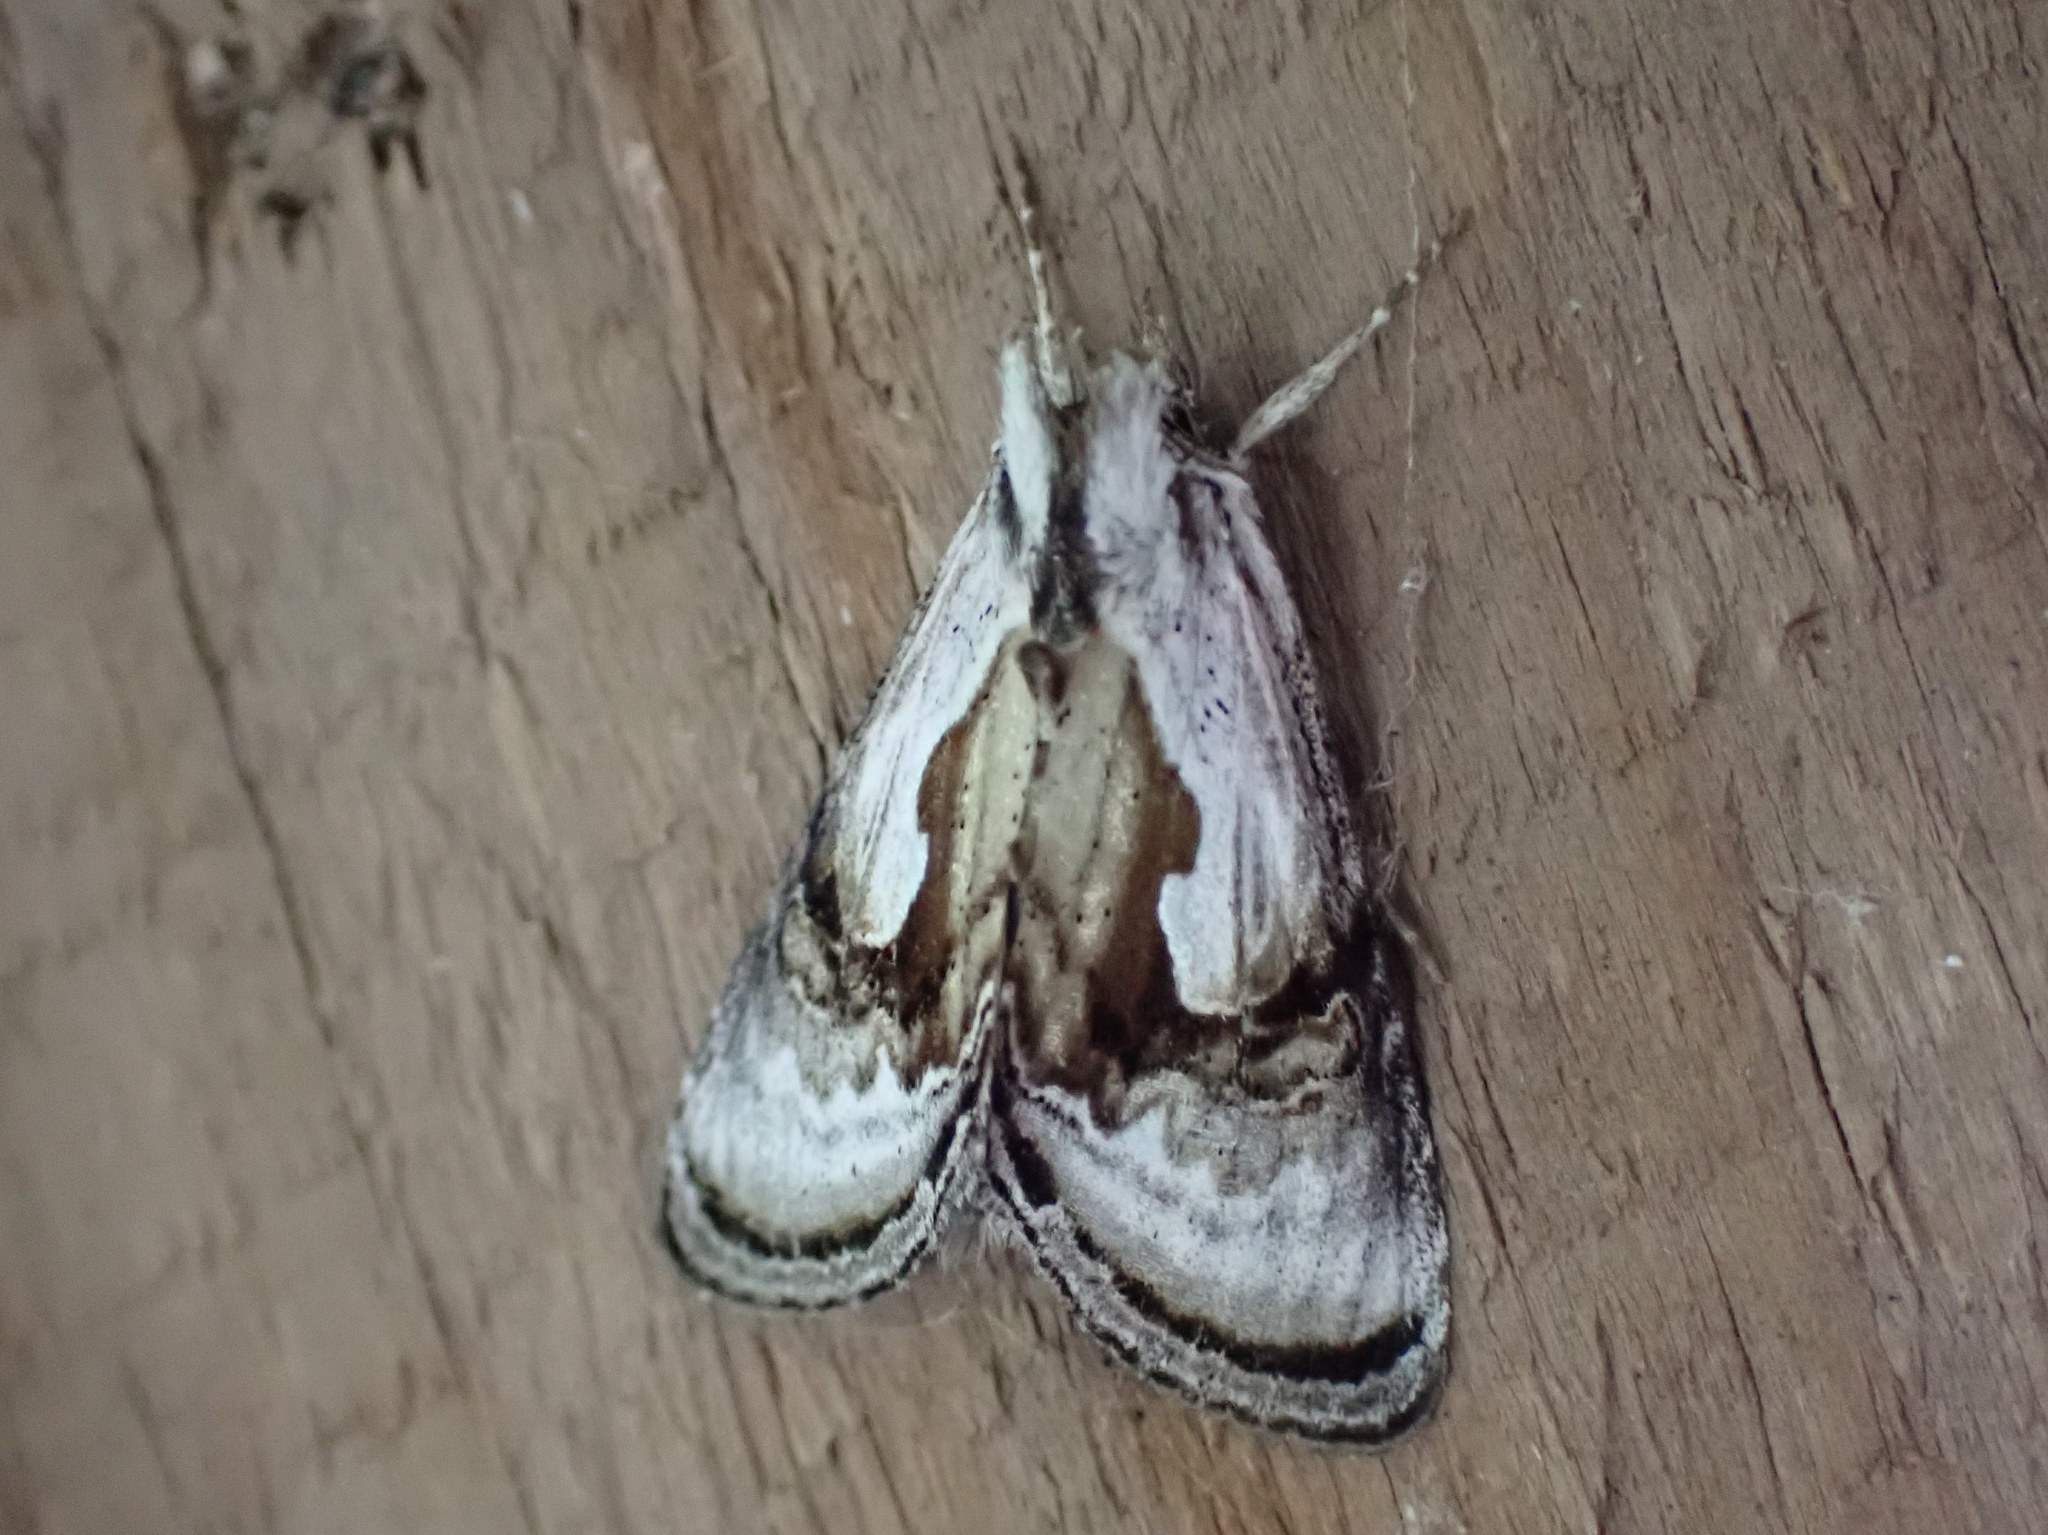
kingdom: Animalia
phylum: Arthropoda
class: Insecta
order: Lepidoptera
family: Noctuidae
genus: Chrysanympha
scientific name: Chrysanympha formosa
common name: Formosa looper moth
